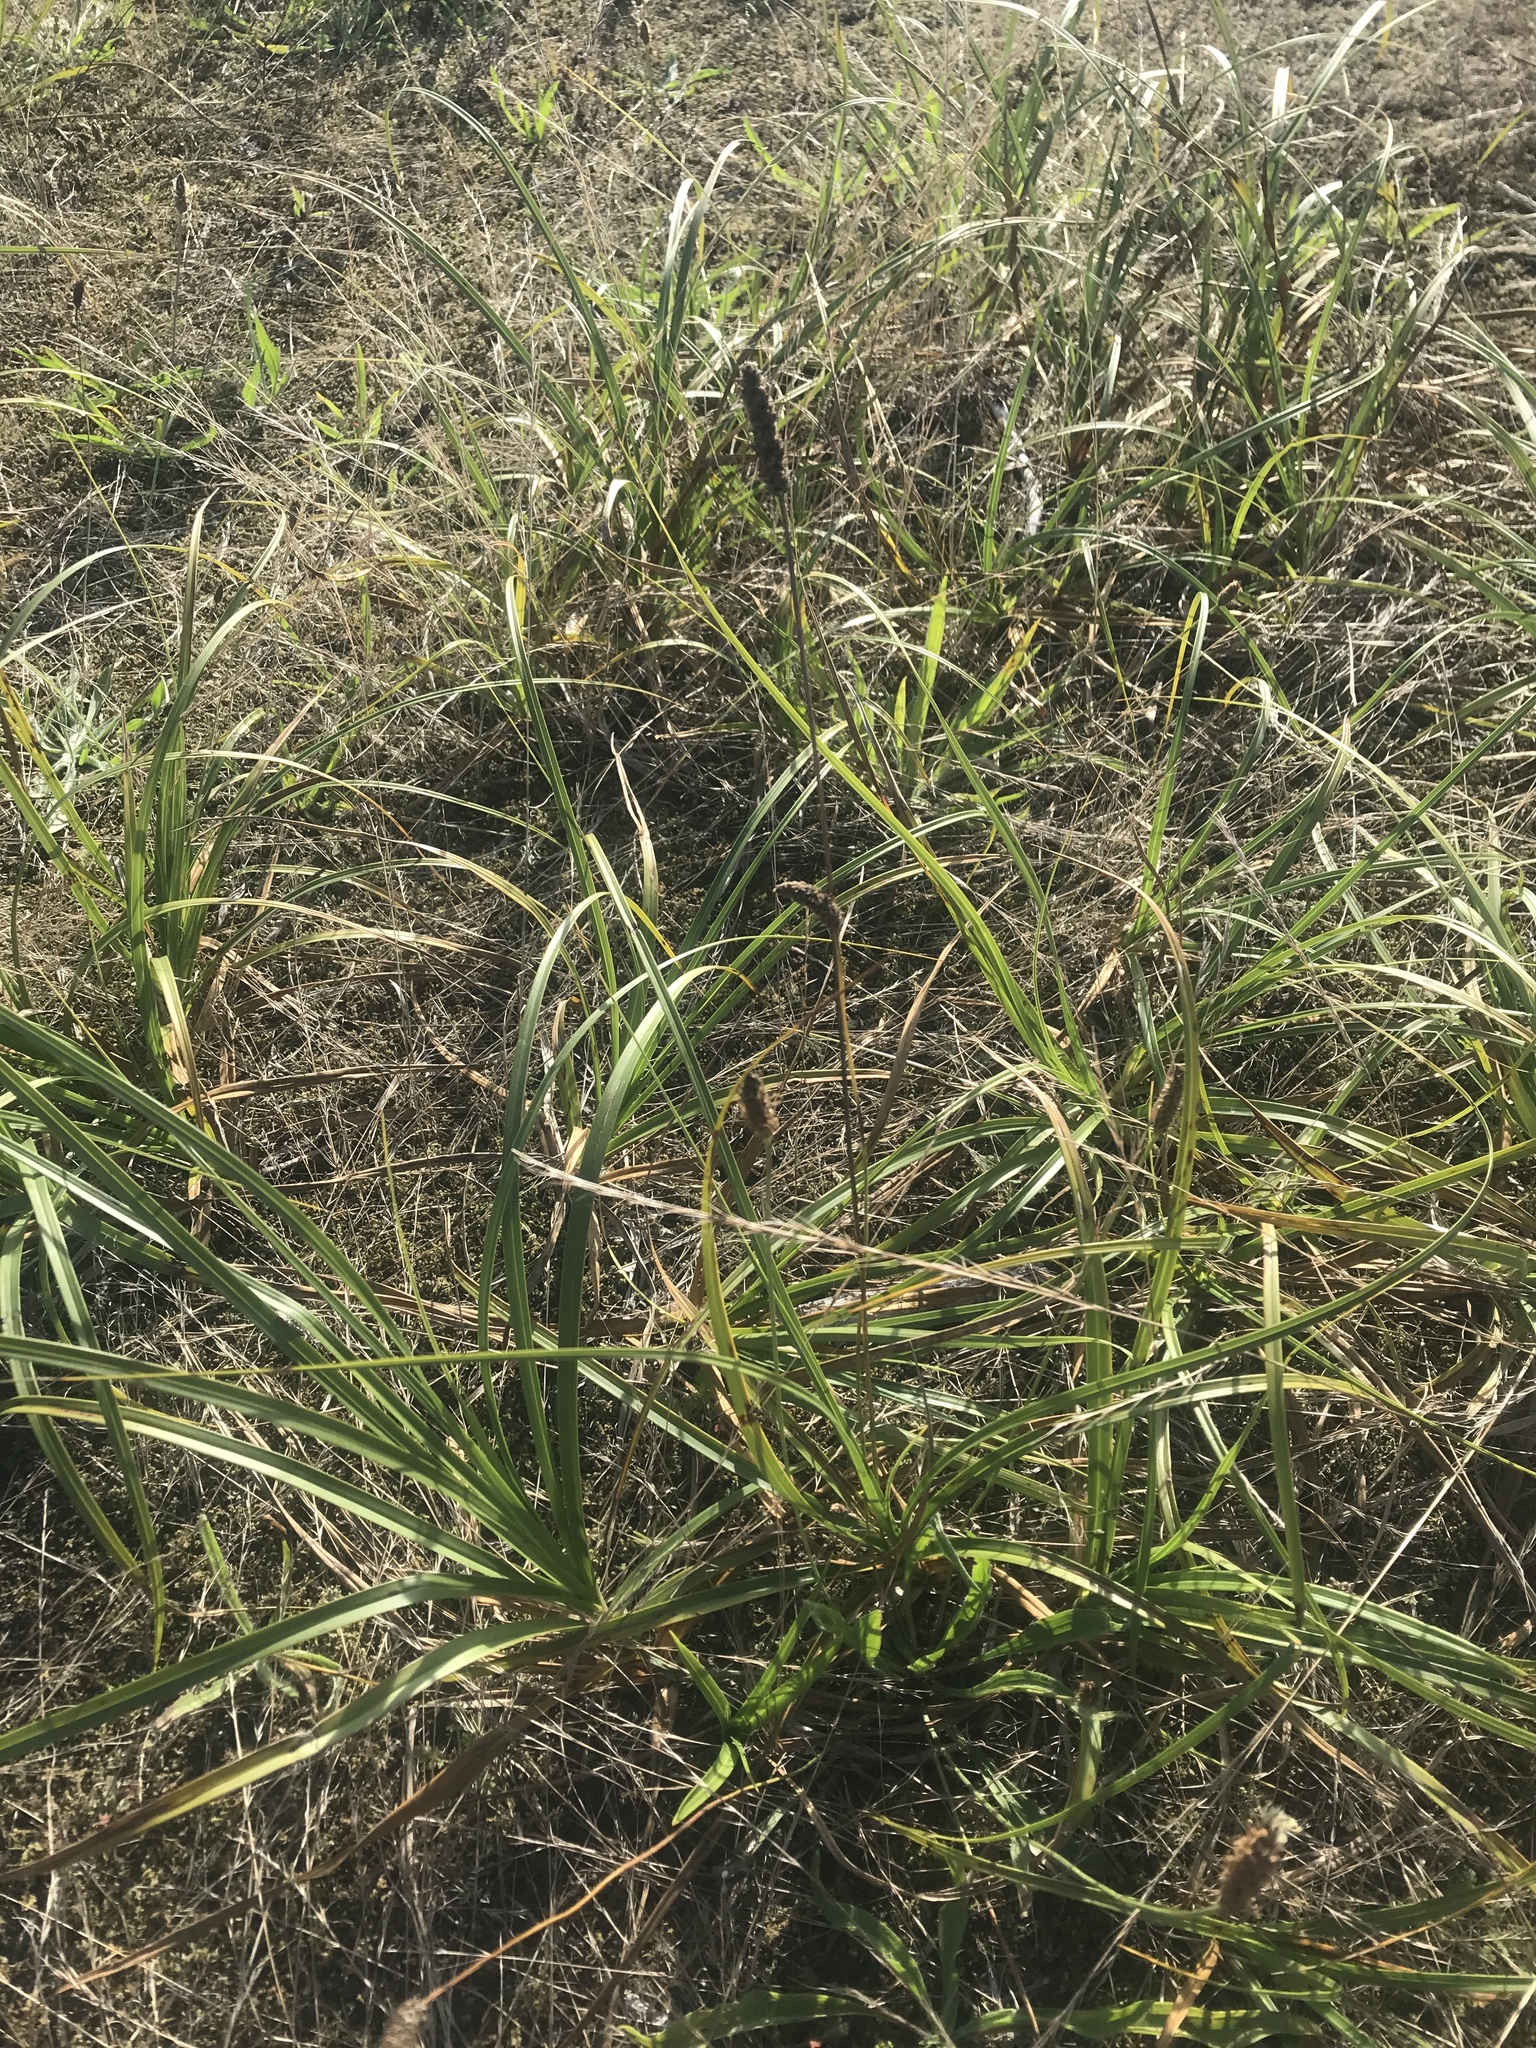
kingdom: Plantae
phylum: Tracheophyta
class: Liliopsida
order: Poales
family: Cyperaceae
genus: Carex
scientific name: Carex macrocephala
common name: Large-head sedge
